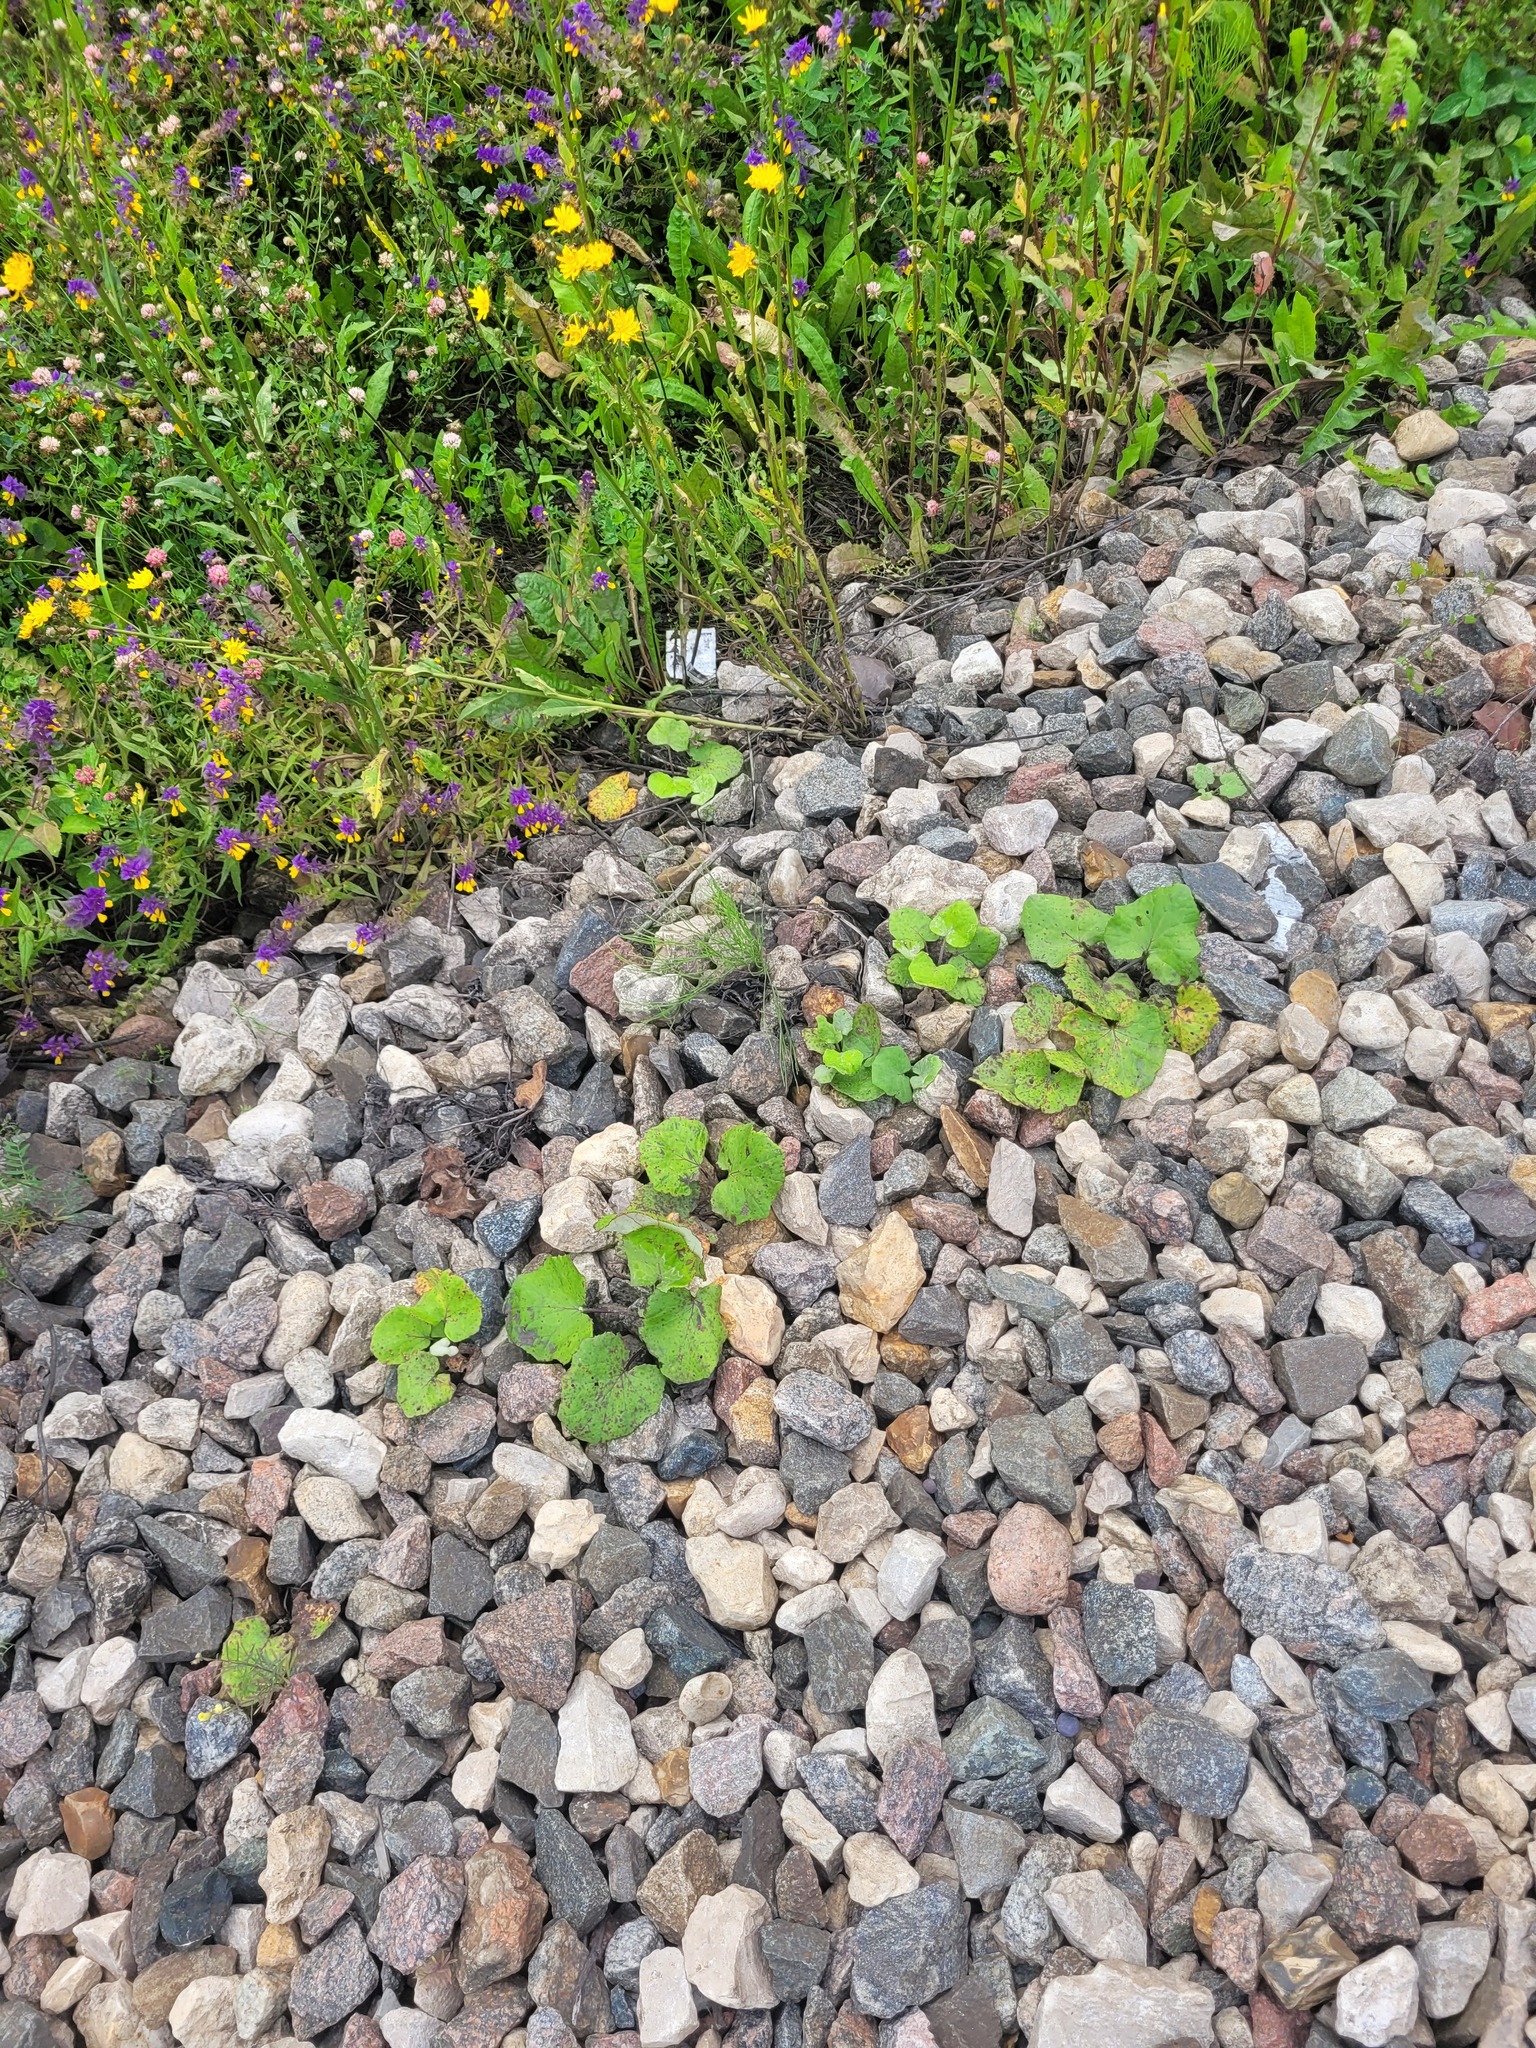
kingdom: Plantae
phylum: Tracheophyta
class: Magnoliopsida
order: Asterales
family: Asteraceae
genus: Tussilago
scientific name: Tussilago farfara
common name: Coltsfoot
